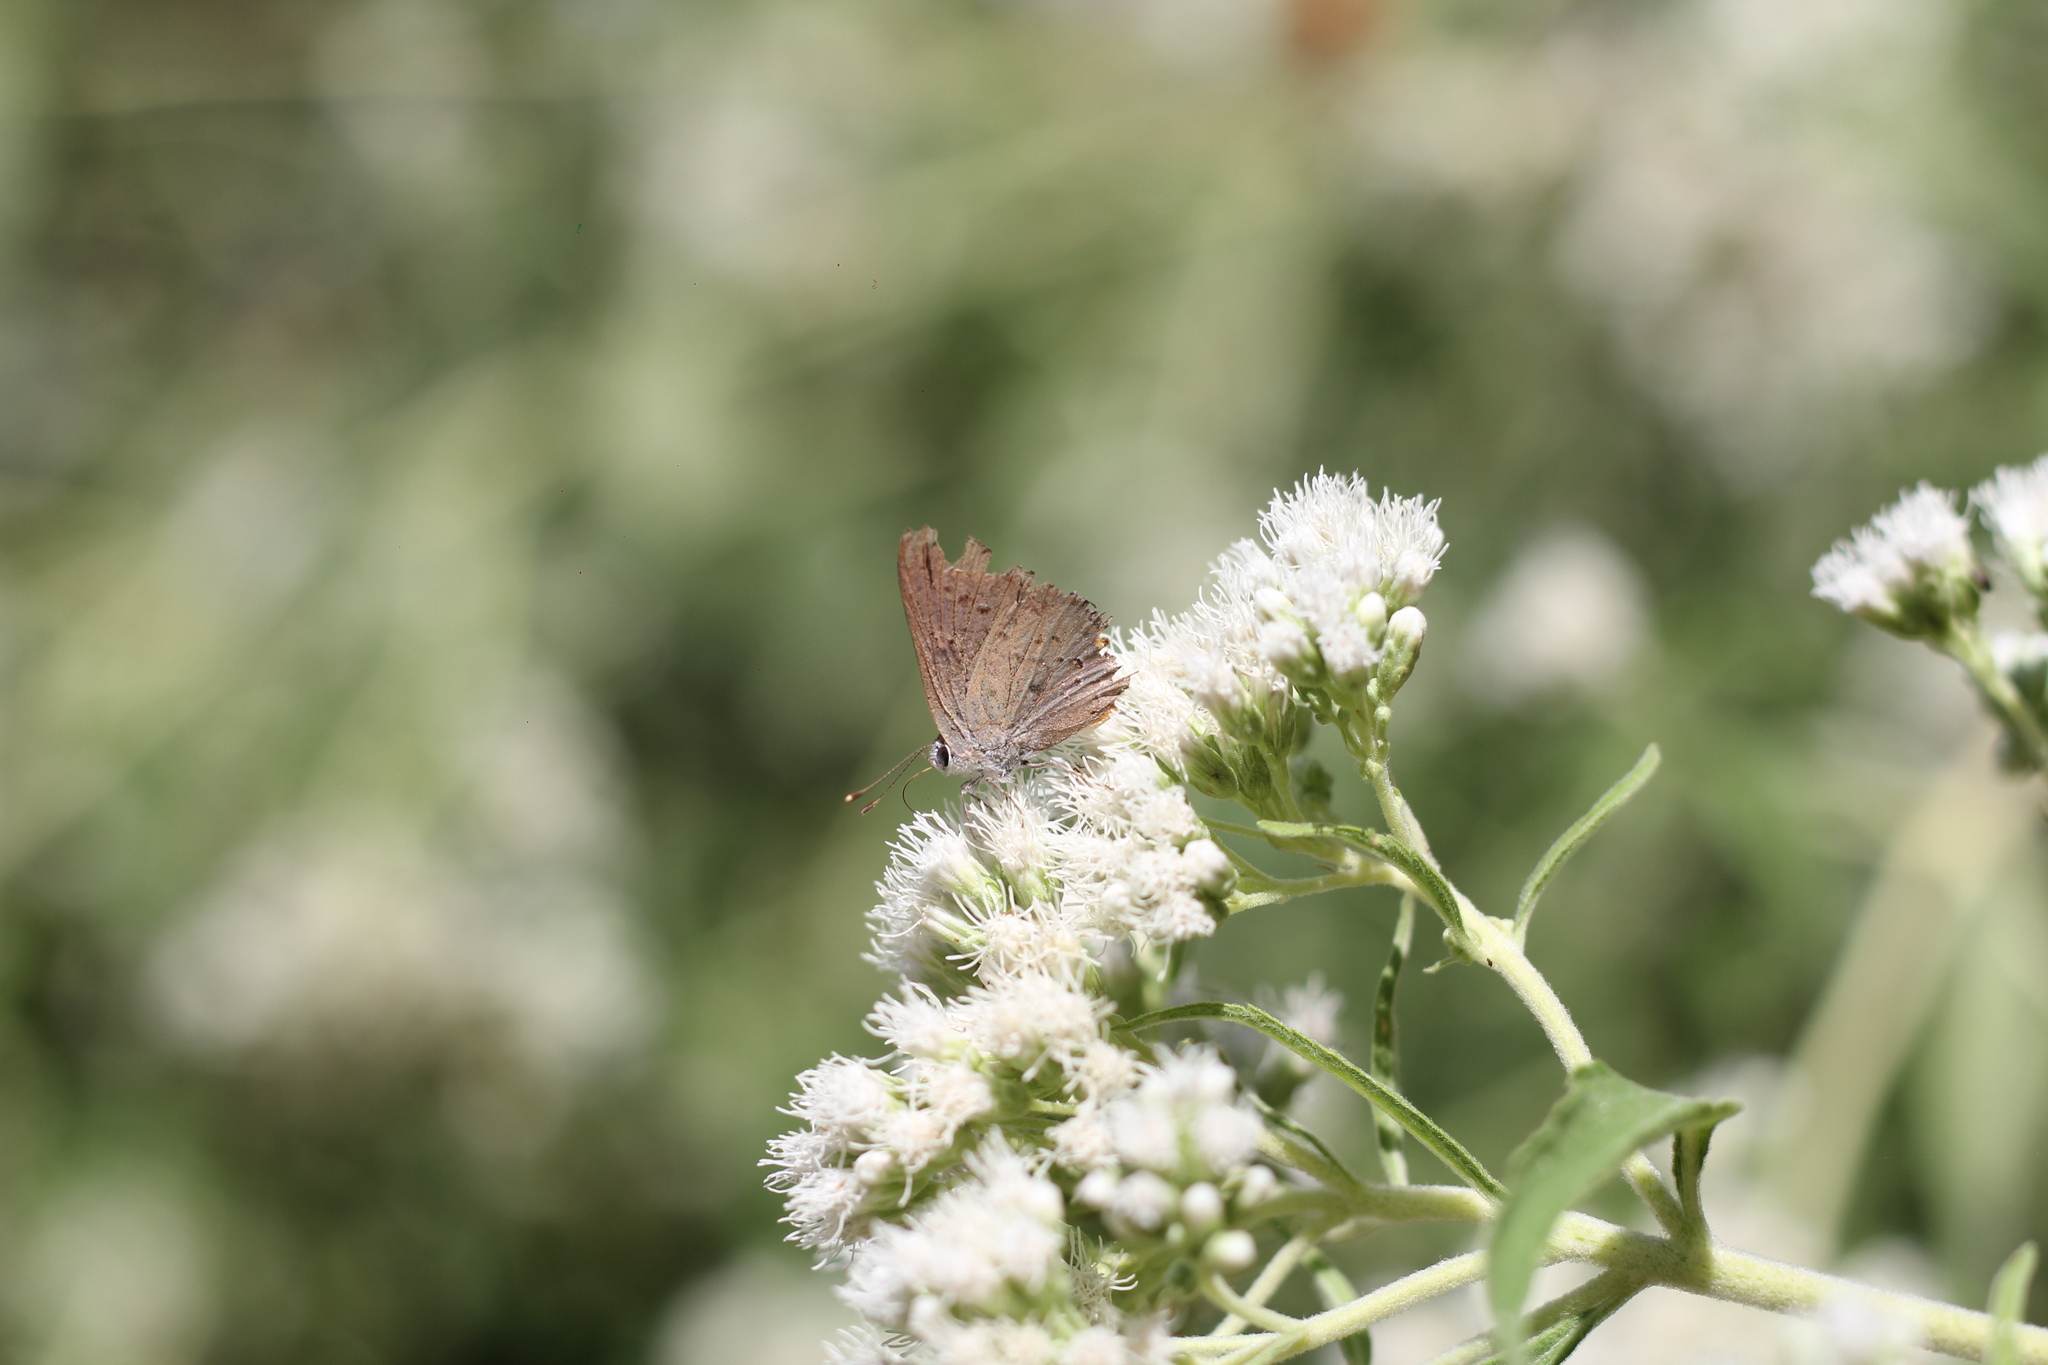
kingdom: Animalia
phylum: Arthropoda
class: Insecta
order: Lepidoptera
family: Lycaenidae
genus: Strymon
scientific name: Strymon eurytulus
